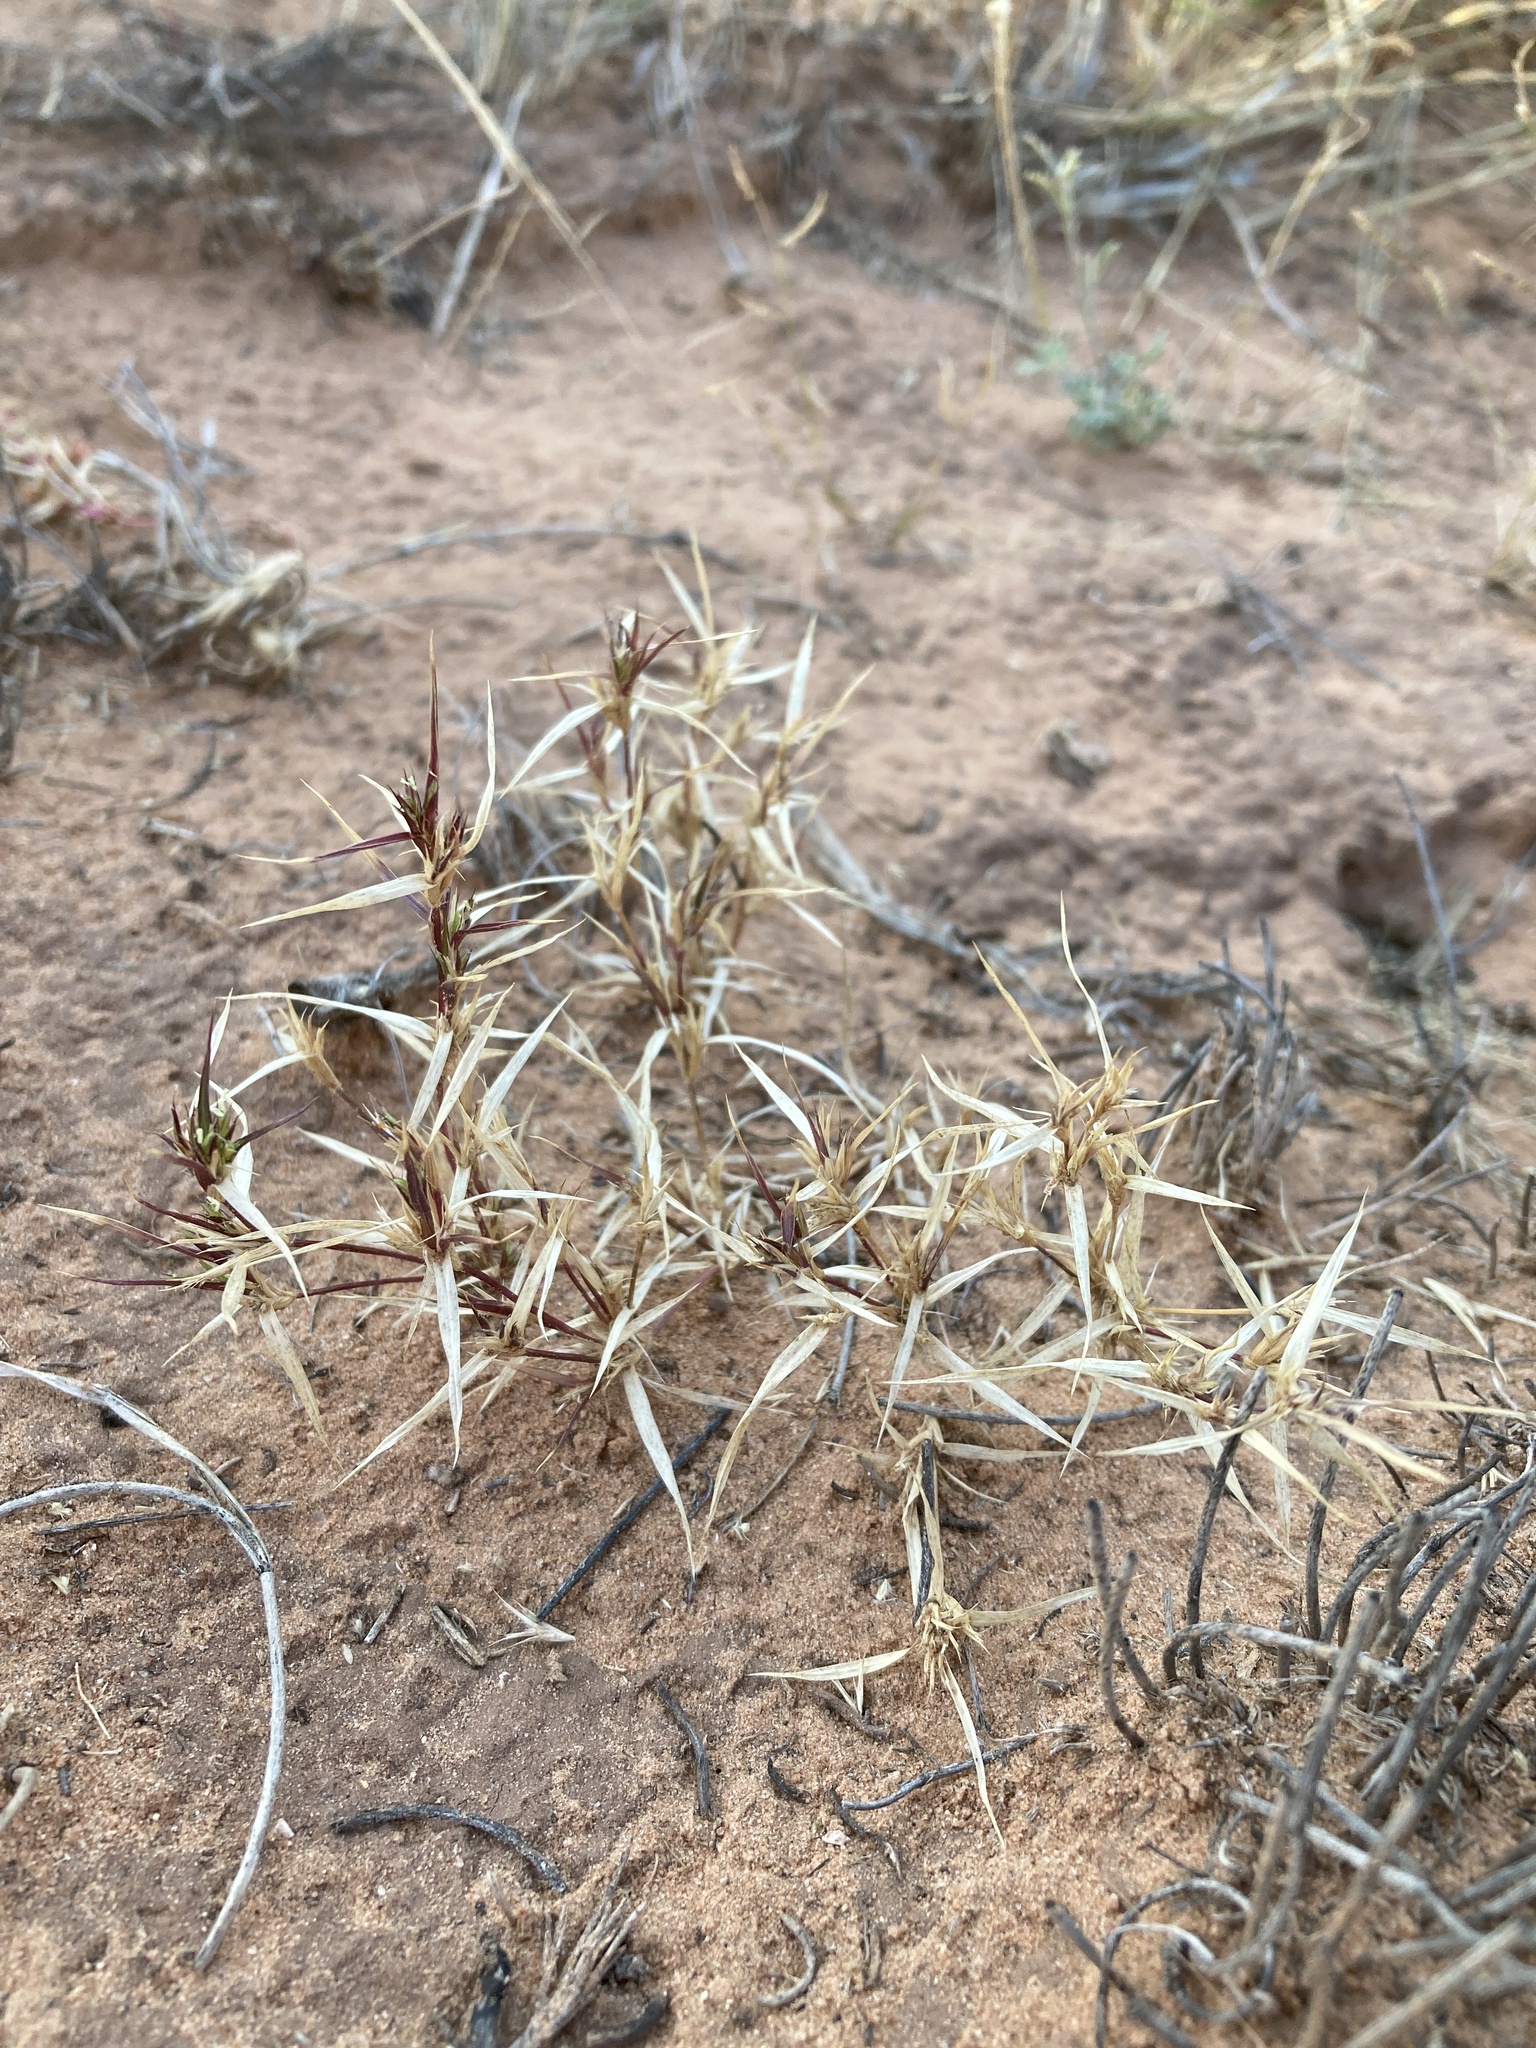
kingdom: Plantae
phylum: Tracheophyta
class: Liliopsida
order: Poales
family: Poaceae
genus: Munroa
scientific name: Munroa squarrosa
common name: False buffalo grass
